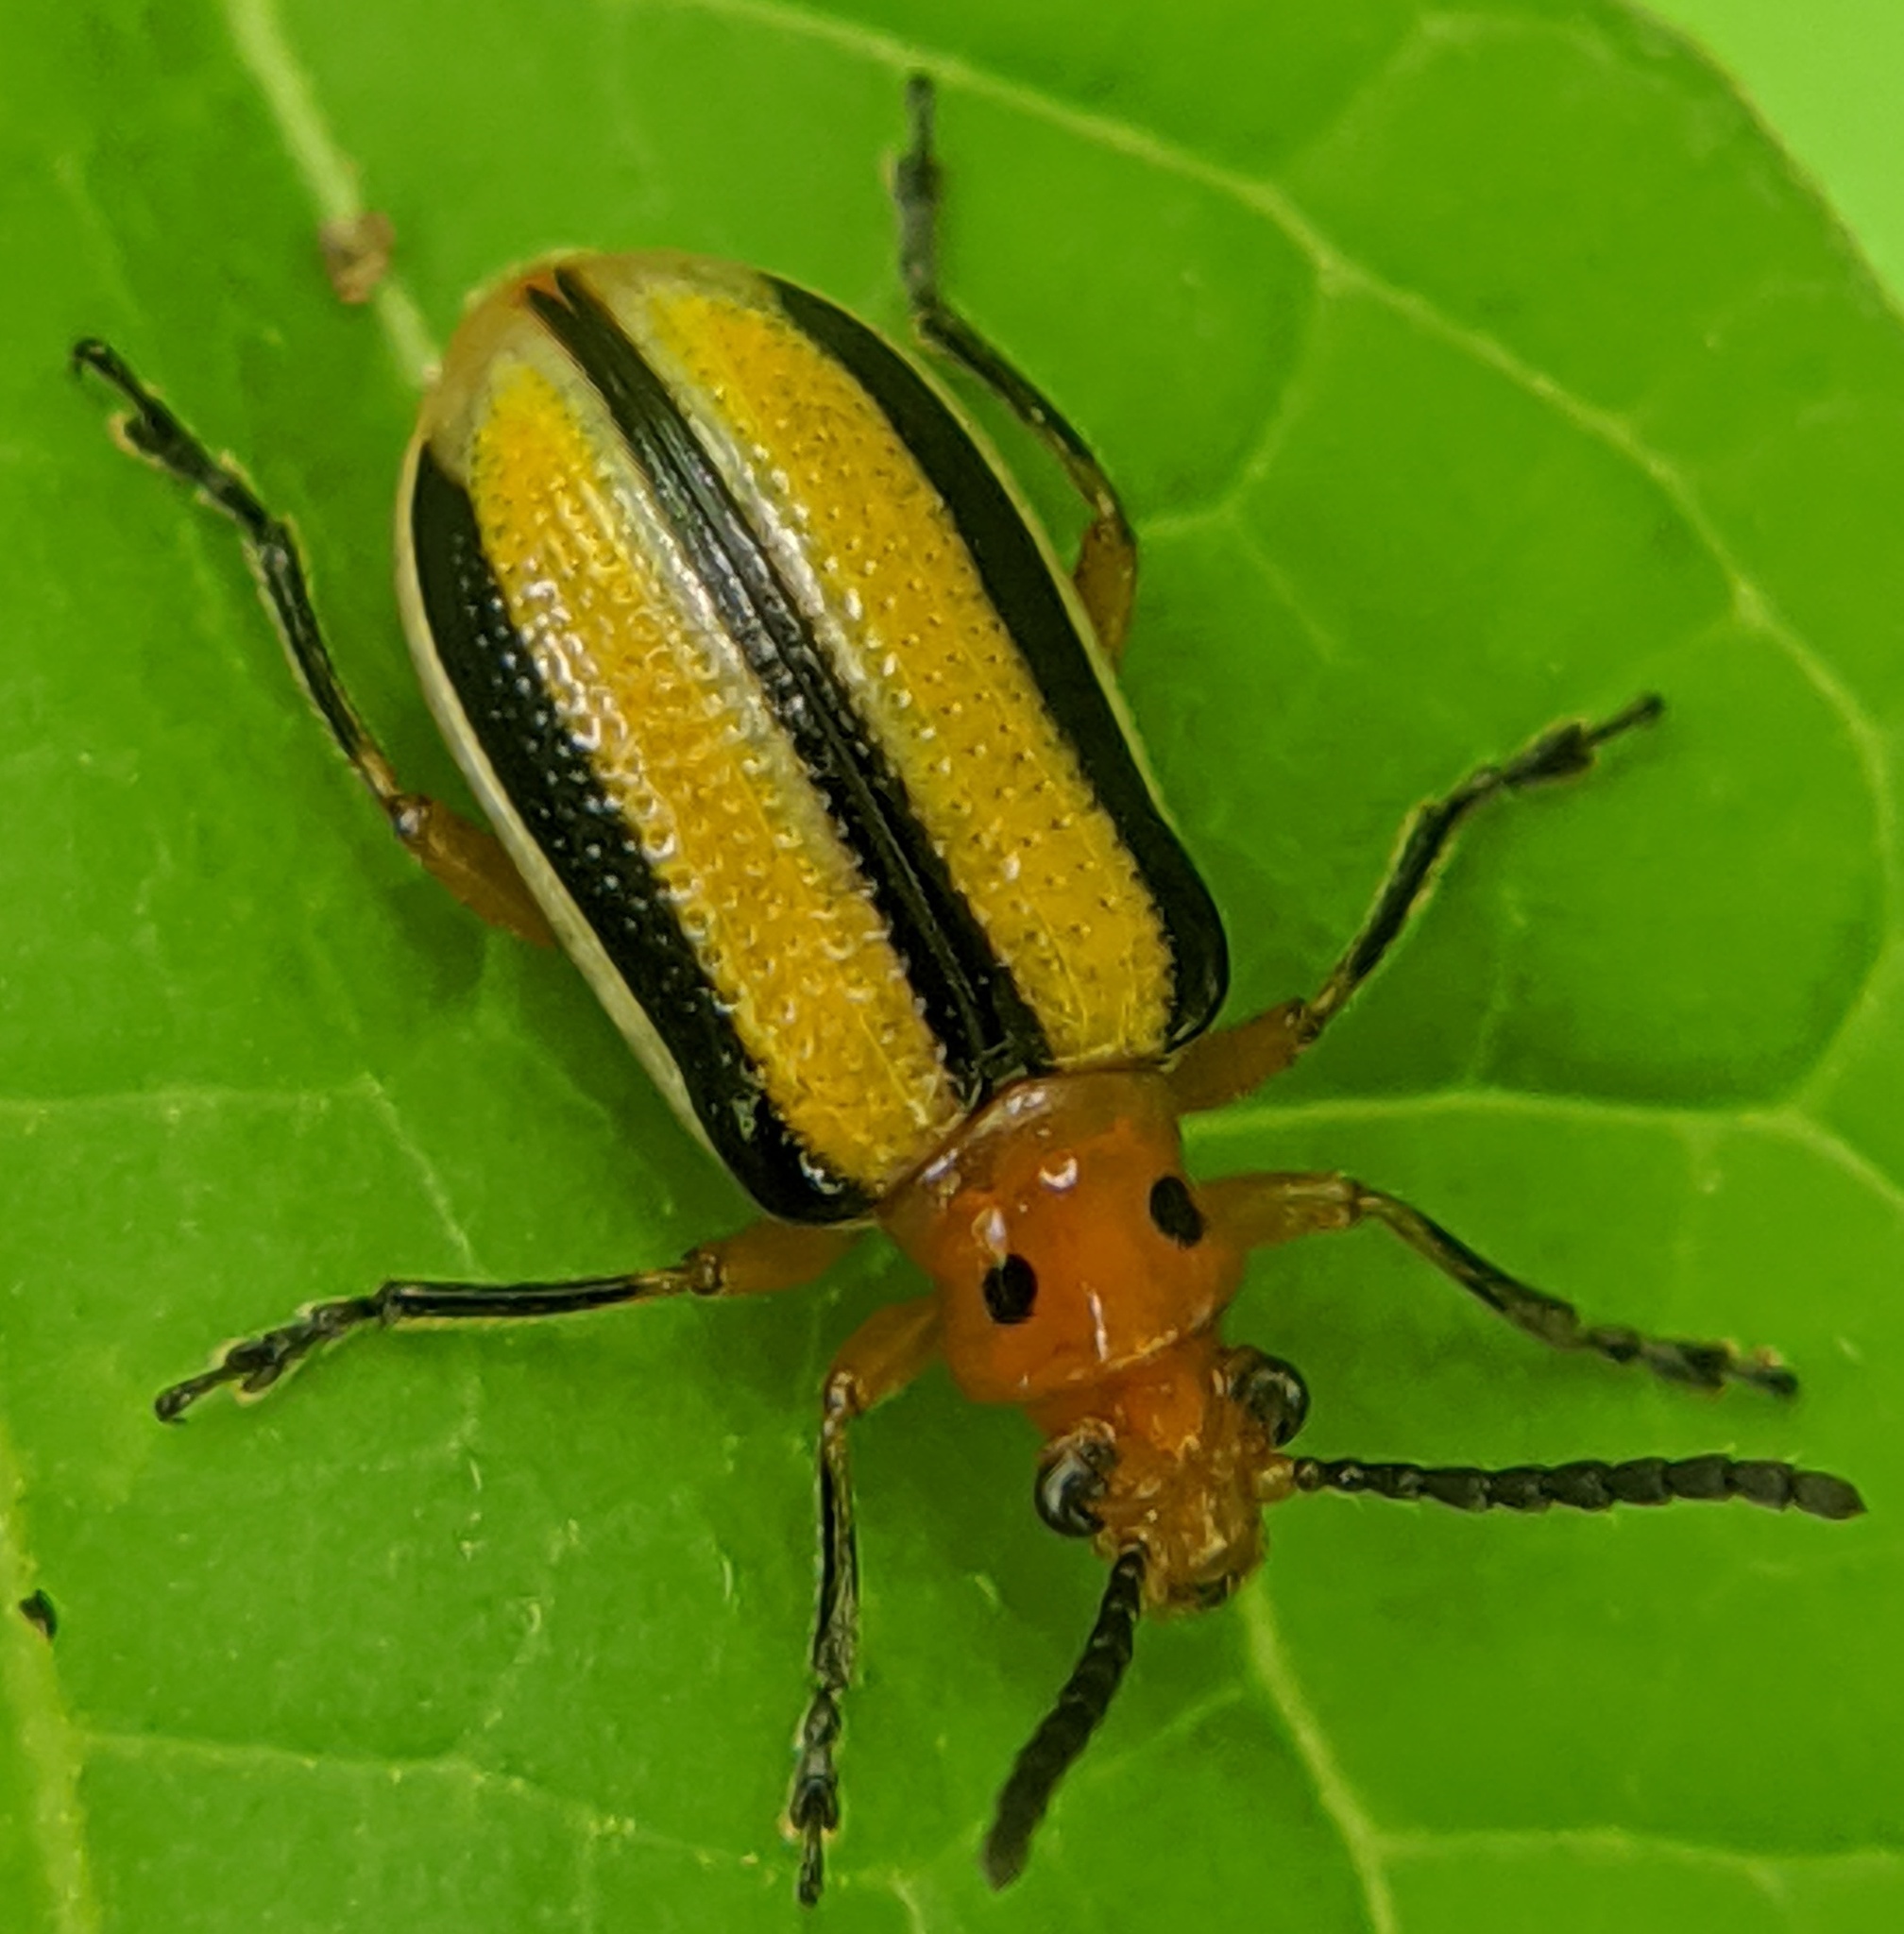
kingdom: Animalia
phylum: Arthropoda
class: Insecta
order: Coleoptera
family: Chrysomelidae
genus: Lema
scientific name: Lema daturaphila
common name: Leaf beetle
